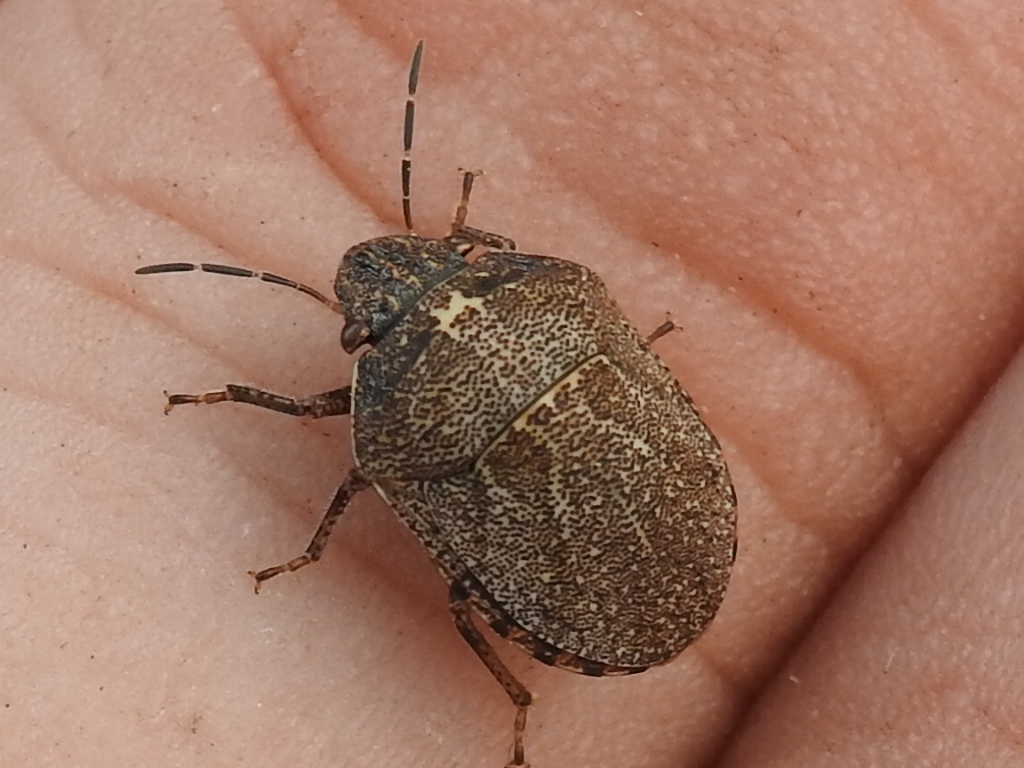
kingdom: Animalia
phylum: Arthropoda
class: Insecta
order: Hemiptera
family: Scutelleridae
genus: Sphyrocoris
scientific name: Sphyrocoris obliquus
